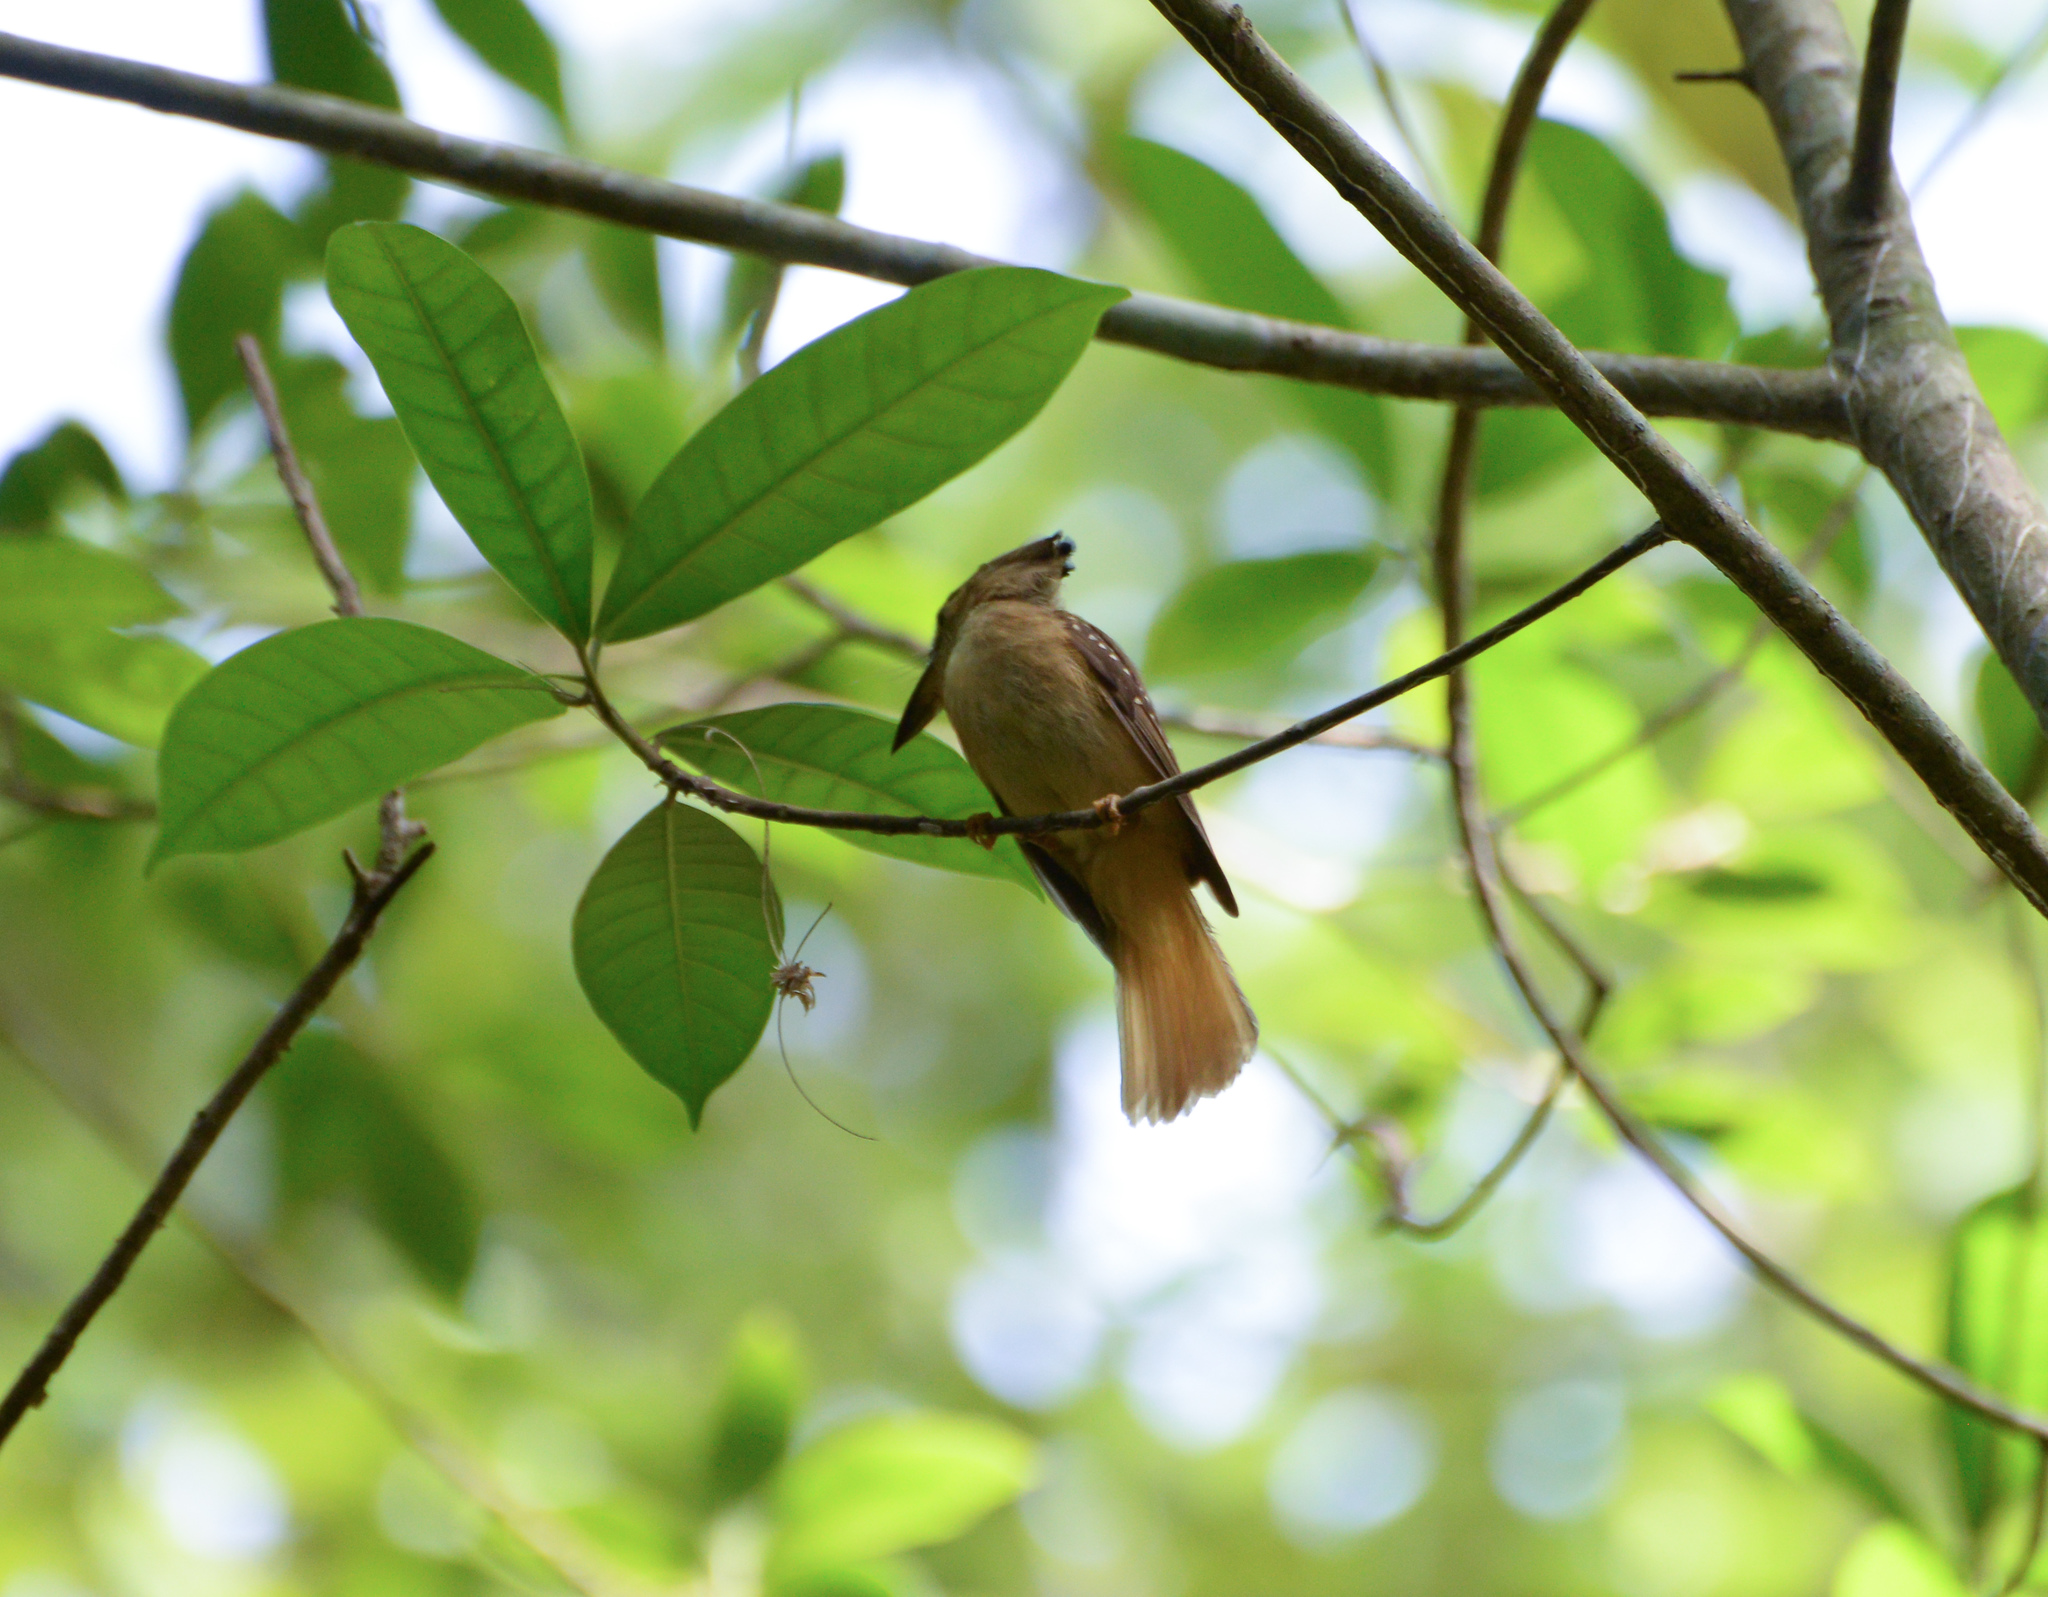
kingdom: Animalia
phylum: Chordata
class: Aves
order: Passeriformes
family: Tyrannidae
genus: Onychorhynchus
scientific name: Onychorhynchus coronatus
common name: Royal flycatcher
